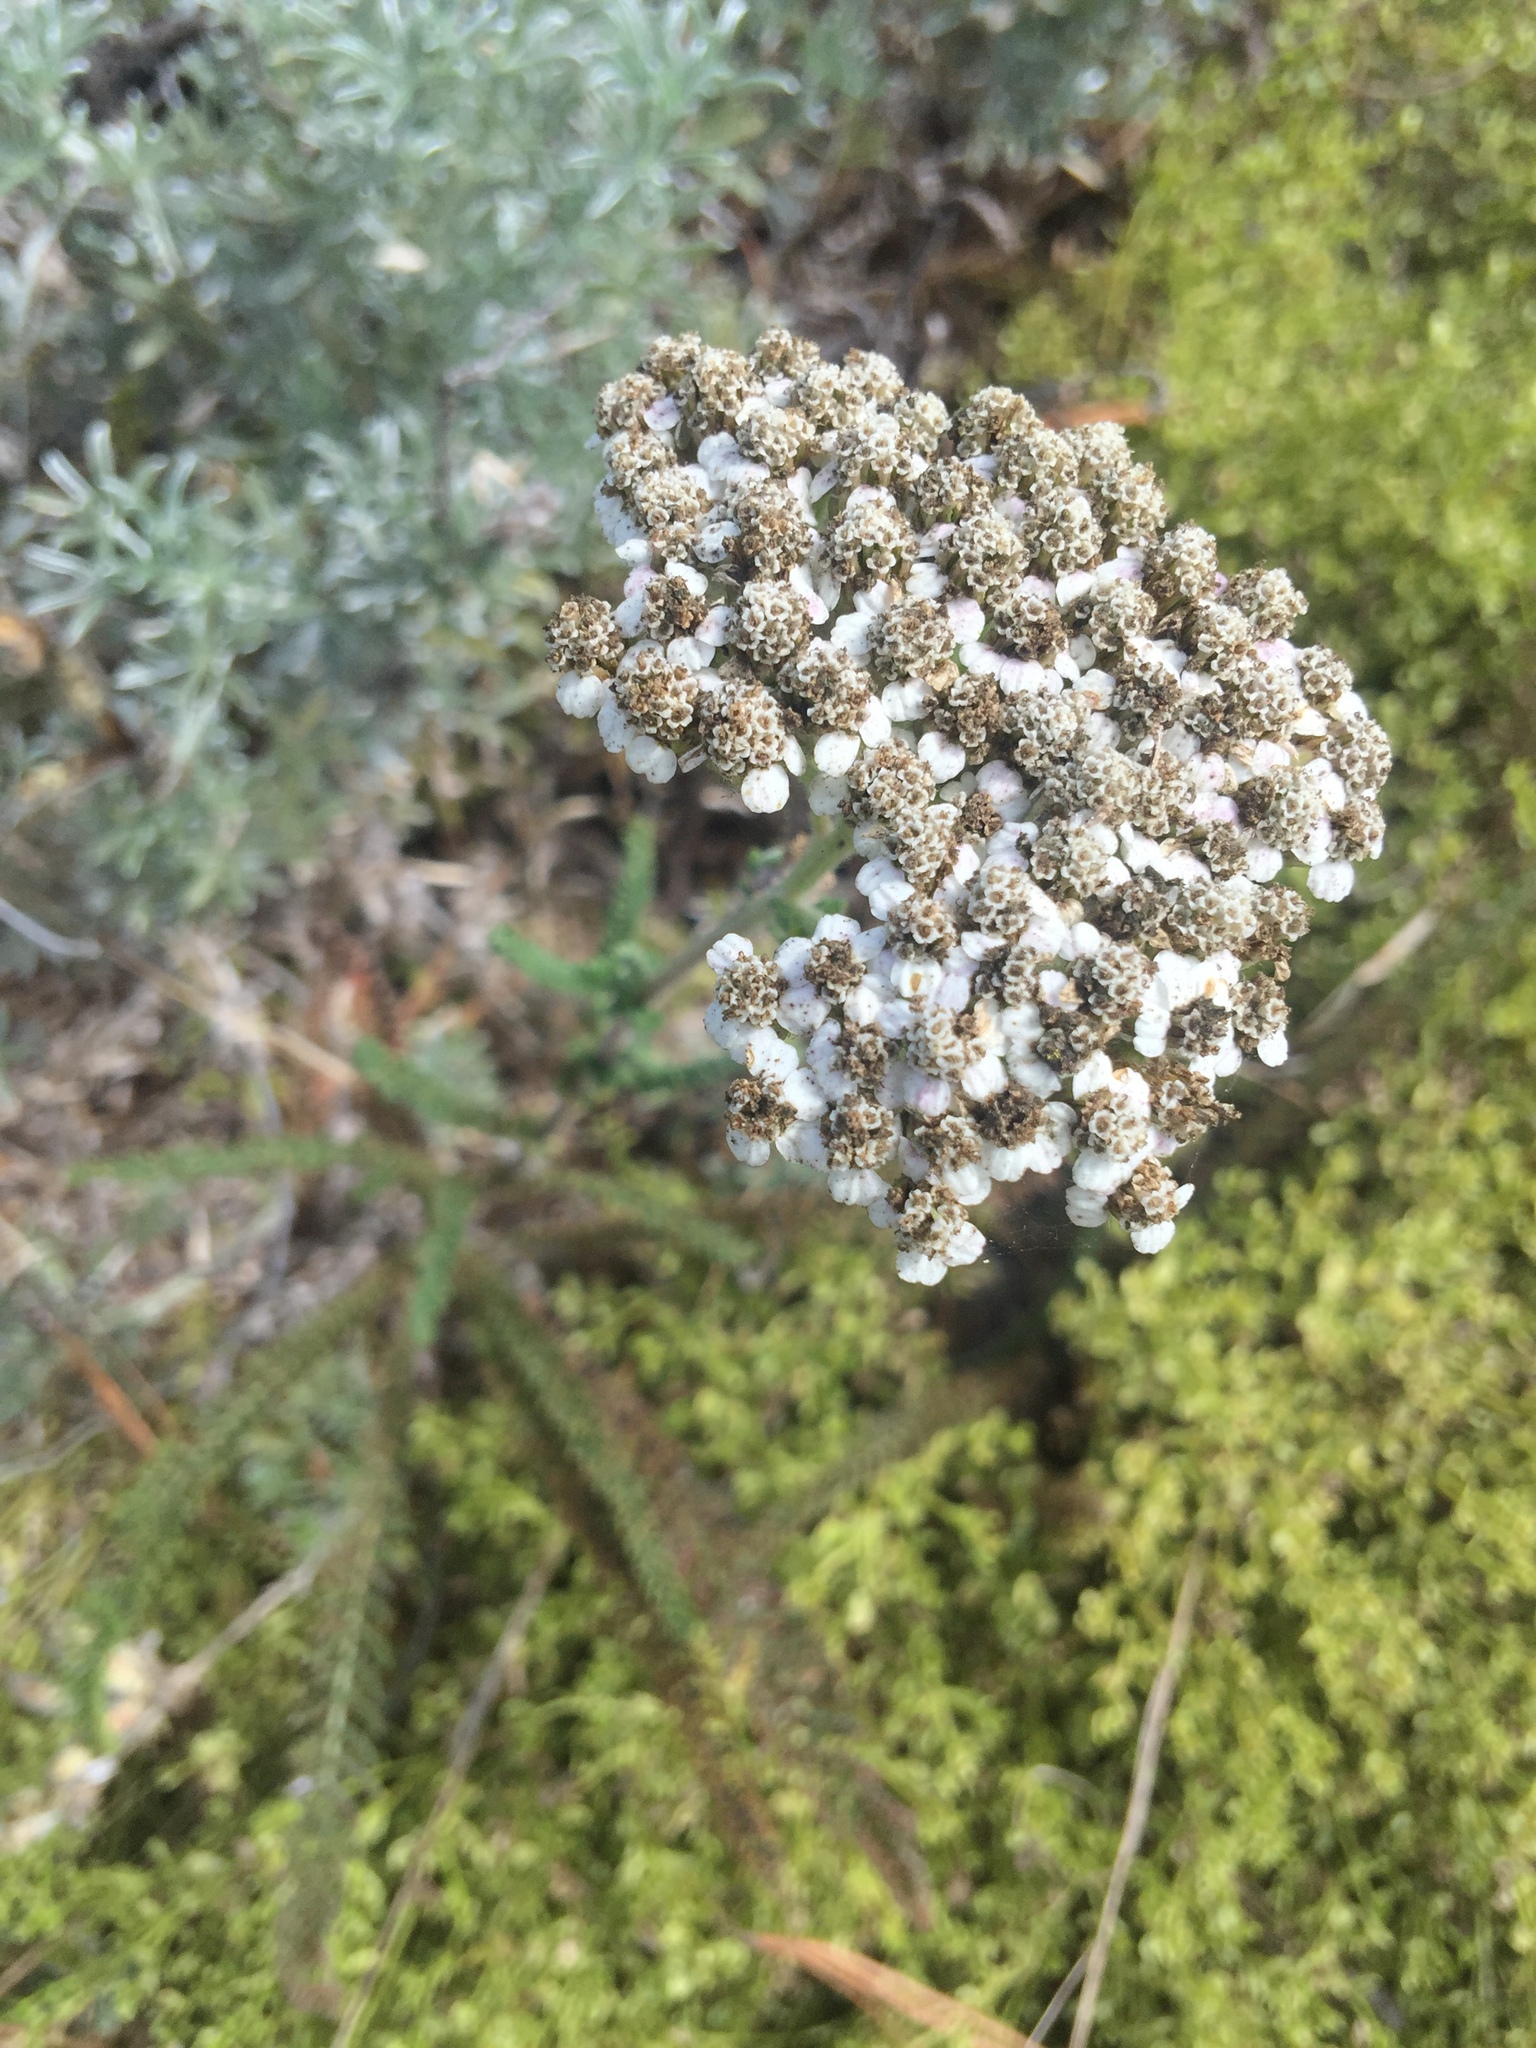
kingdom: Plantae
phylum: Tracheophyta
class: Magnoliopsida
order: Asterales
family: Asteraceae
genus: Achillea
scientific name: Achillea millefolium
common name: Yarrow
